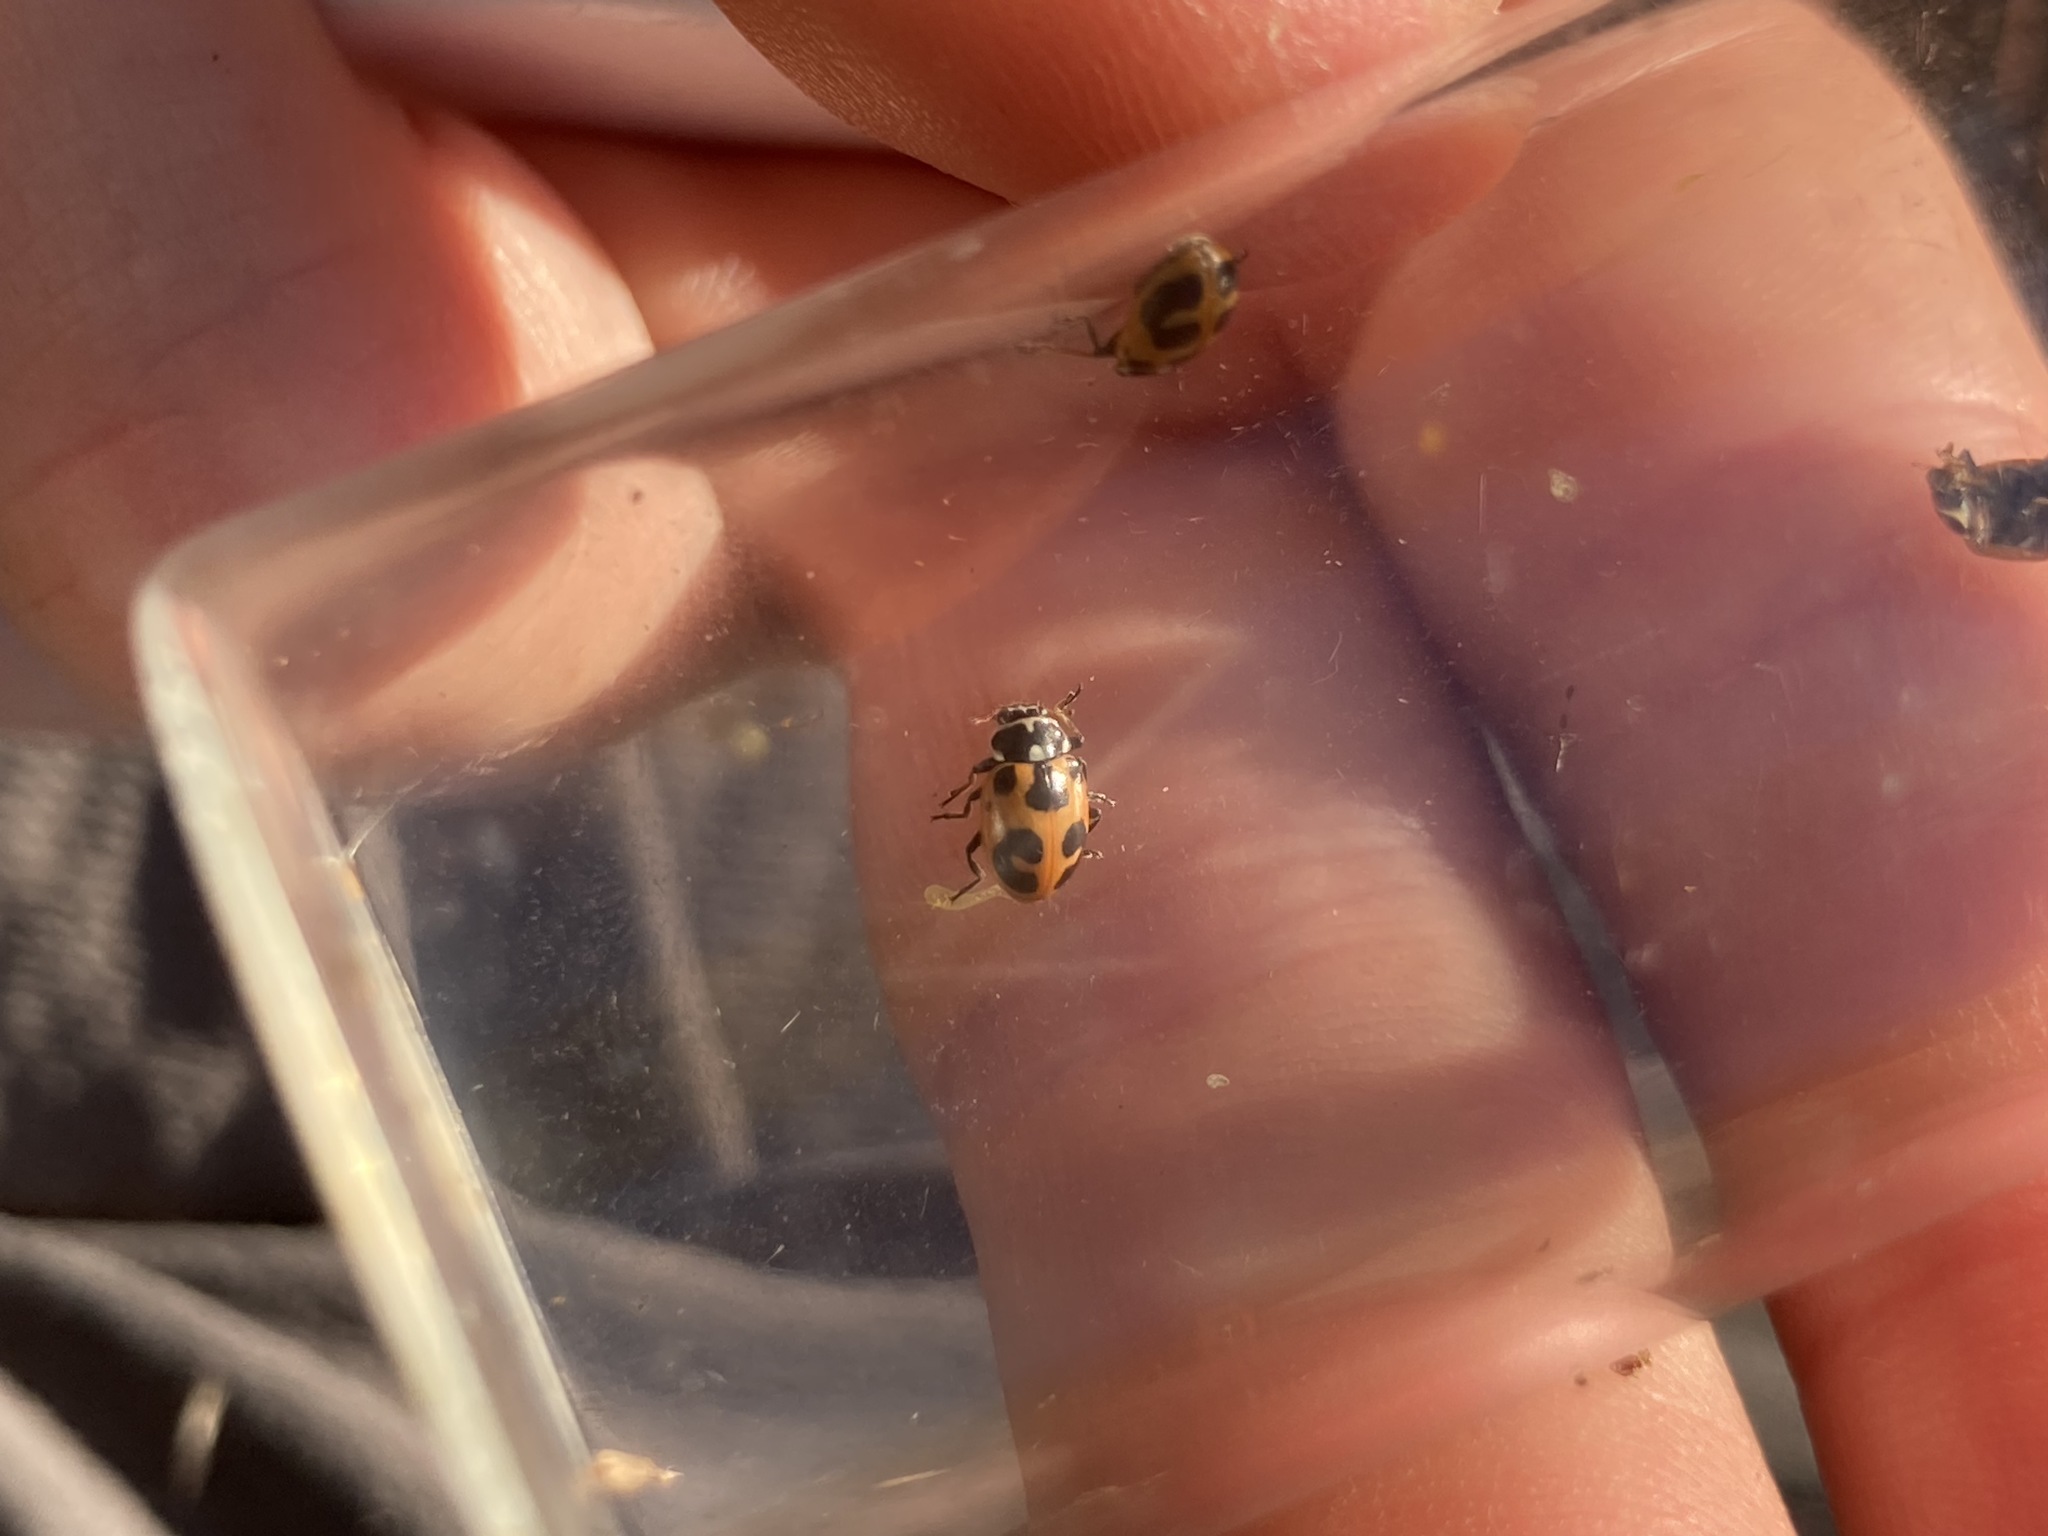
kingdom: Animalia
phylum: Arthropoda
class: Insecta
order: Coleoptera
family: Coccinellidae
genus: Hippodamia
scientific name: Hippodamia parenthesis
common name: Parenthesis lady beetle
